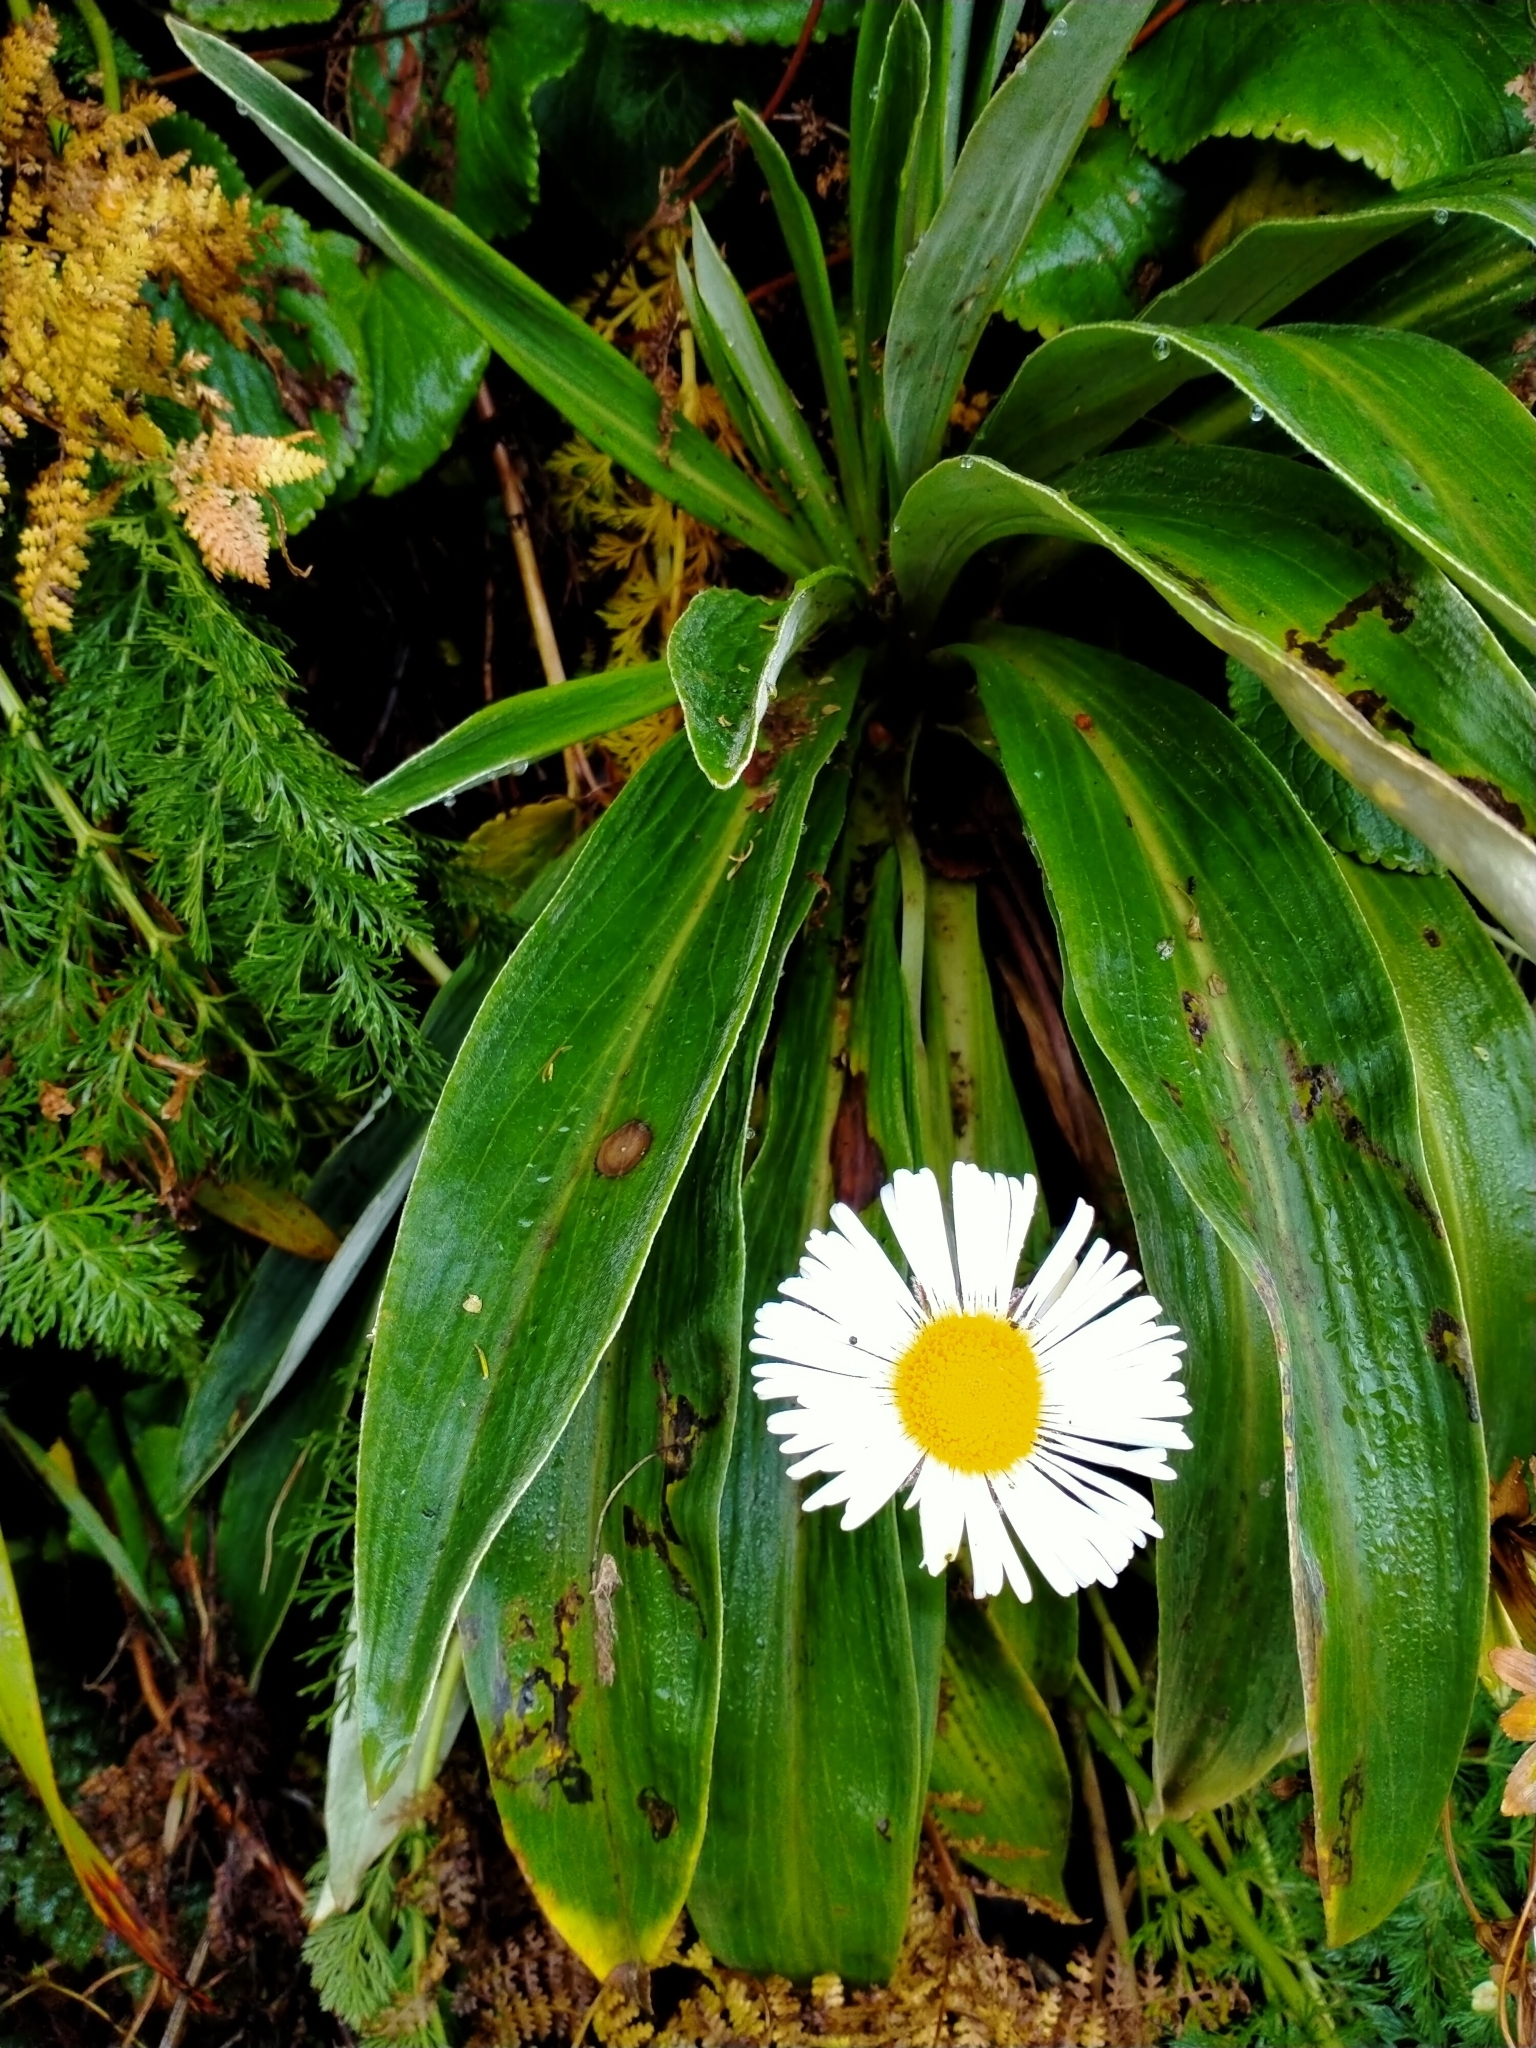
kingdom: Plantae
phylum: Tracheophyta
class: Magnoliopsida
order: Asterales
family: Asteraceae
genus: Celmisia
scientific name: Celmisia verbascifolia
